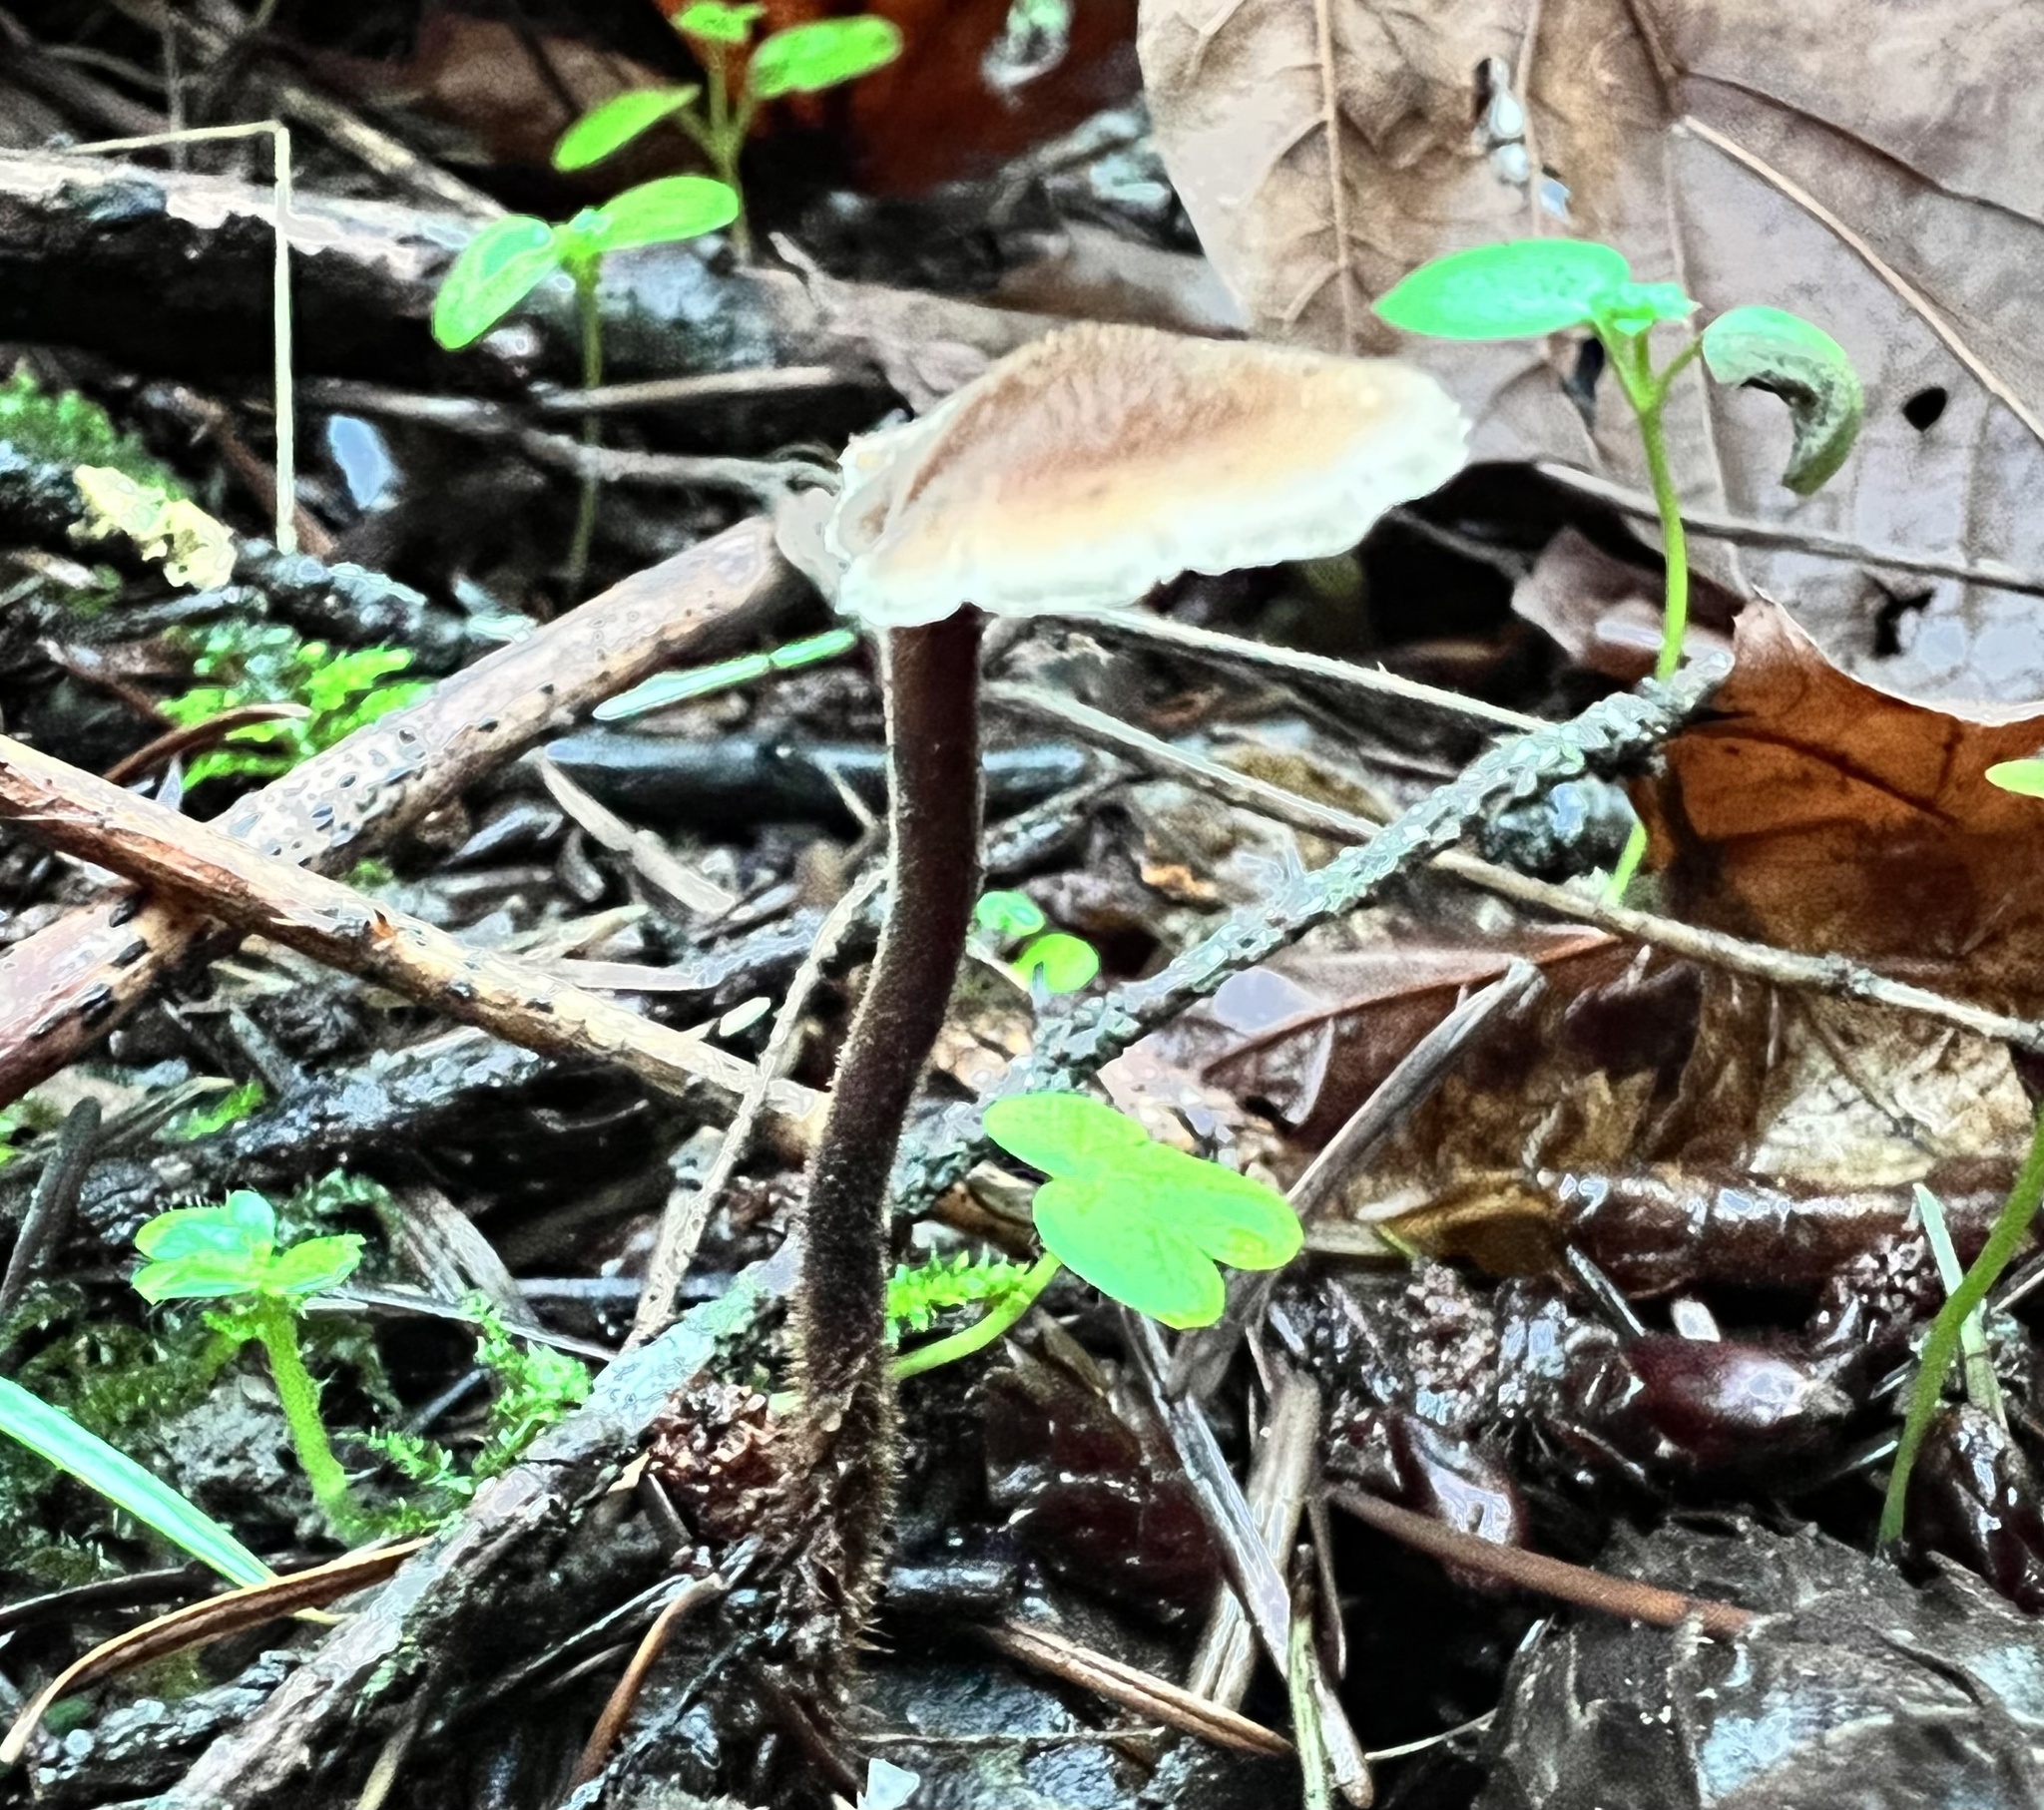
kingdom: Fungi
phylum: Basidiomycota
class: Agaricomycetes
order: Russulales
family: Auriscalpiaceae
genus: Auriscalpium
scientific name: Auriscalpium vulgare
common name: Earpick fungus
